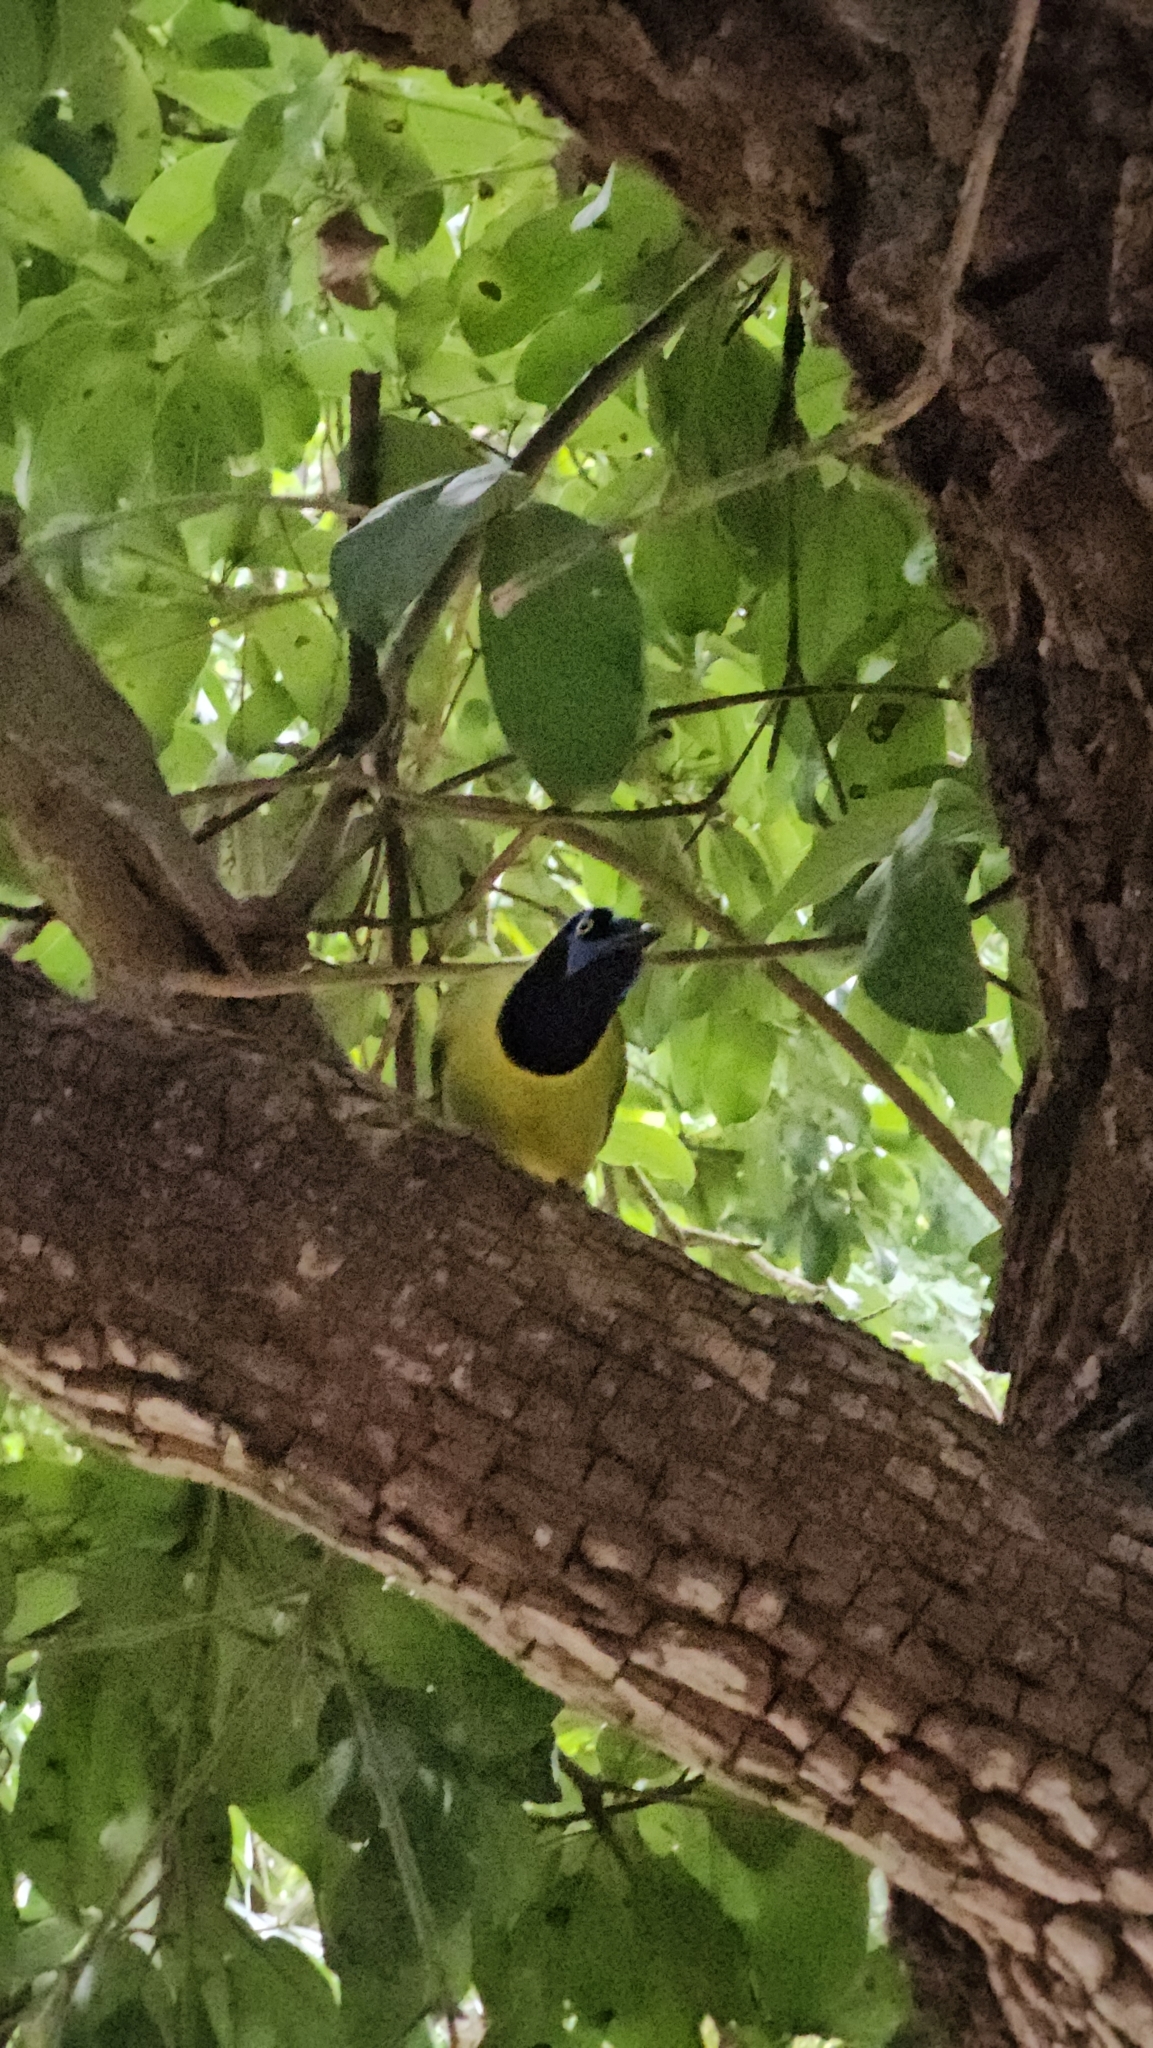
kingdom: Animalia
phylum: Chordata
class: Aves
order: Passeriformes
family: Corvidae
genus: Cyanocorax
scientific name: Cyanocorax yncas
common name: Green jay
